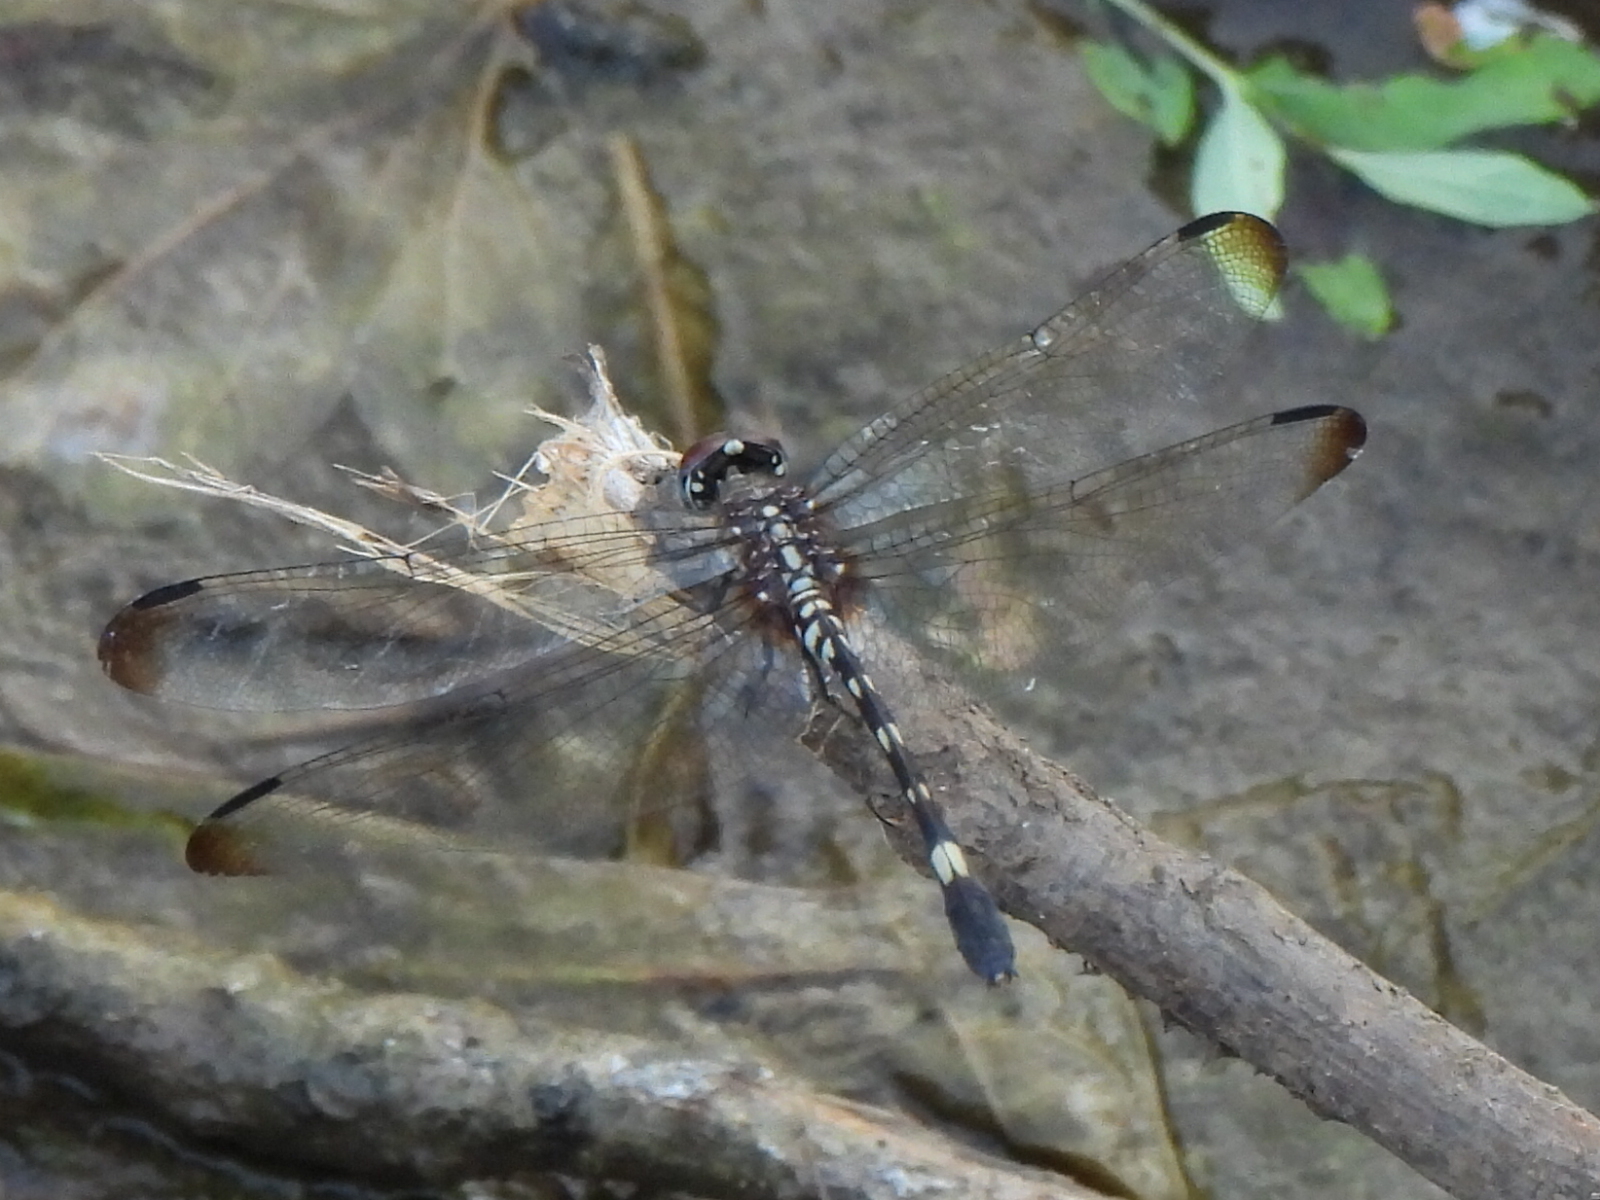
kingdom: Animalia
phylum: Arthropoda
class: Insecta
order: Odonata
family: Libellulidae
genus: Dythemis
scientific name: Dythemis velox
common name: Swift setwing
